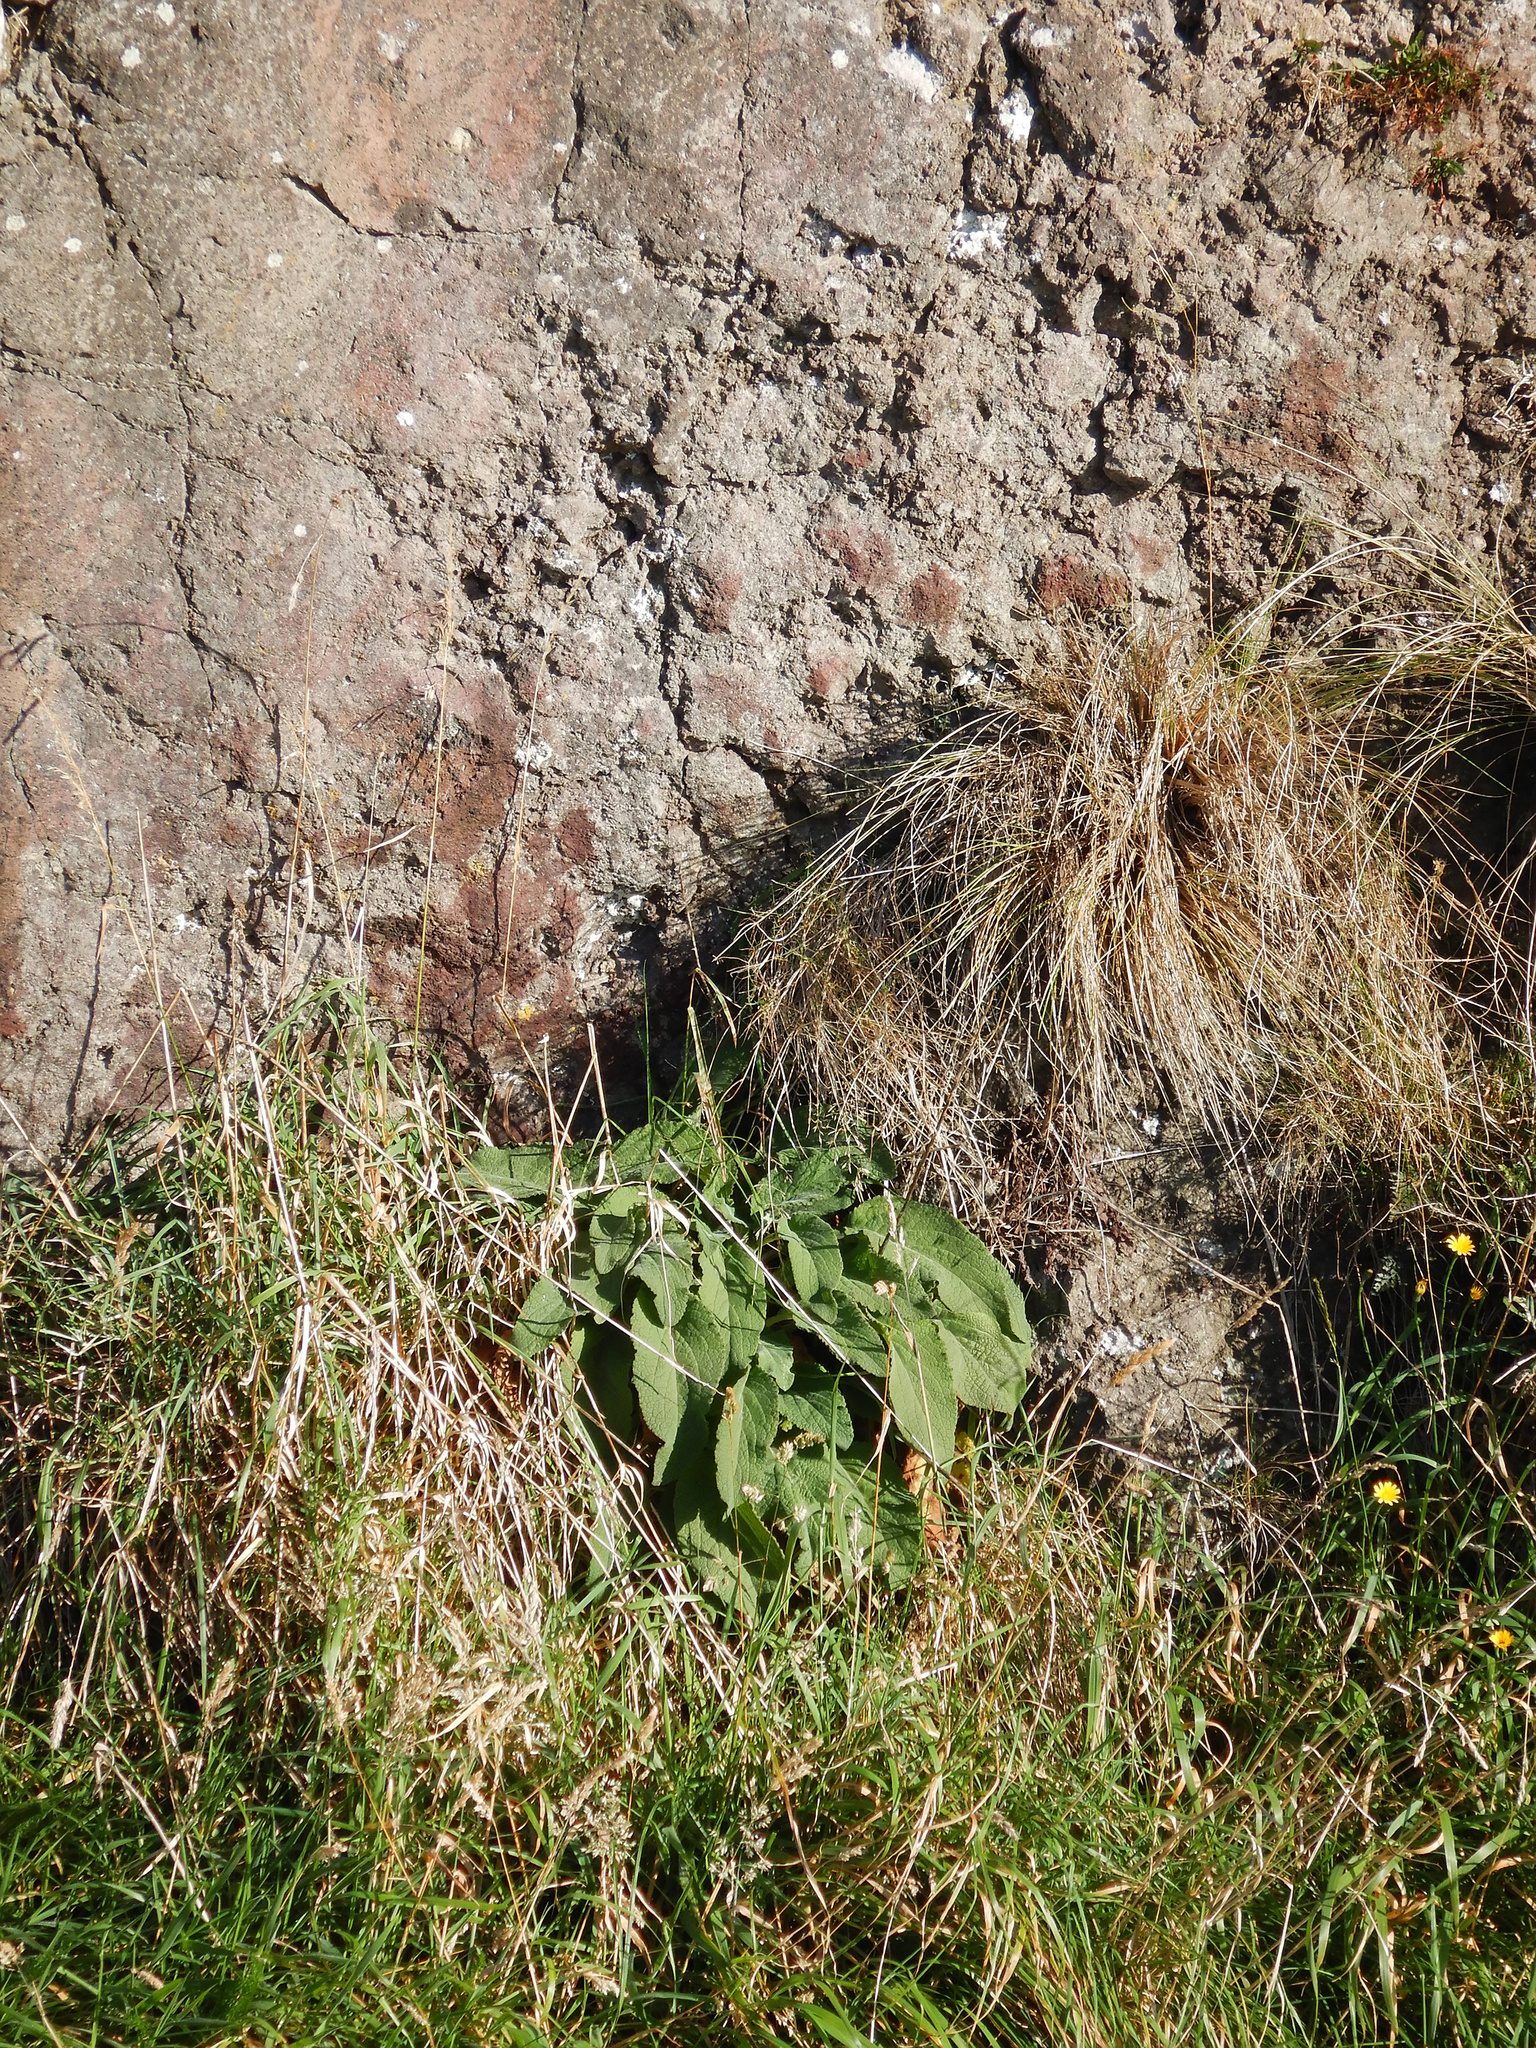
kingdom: Plantae
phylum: Tracheophyta
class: Magnoliopsida
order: Lamiales
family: Plantaginaceae
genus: Digitalis
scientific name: Digitalis purpurea
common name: Foxglove
